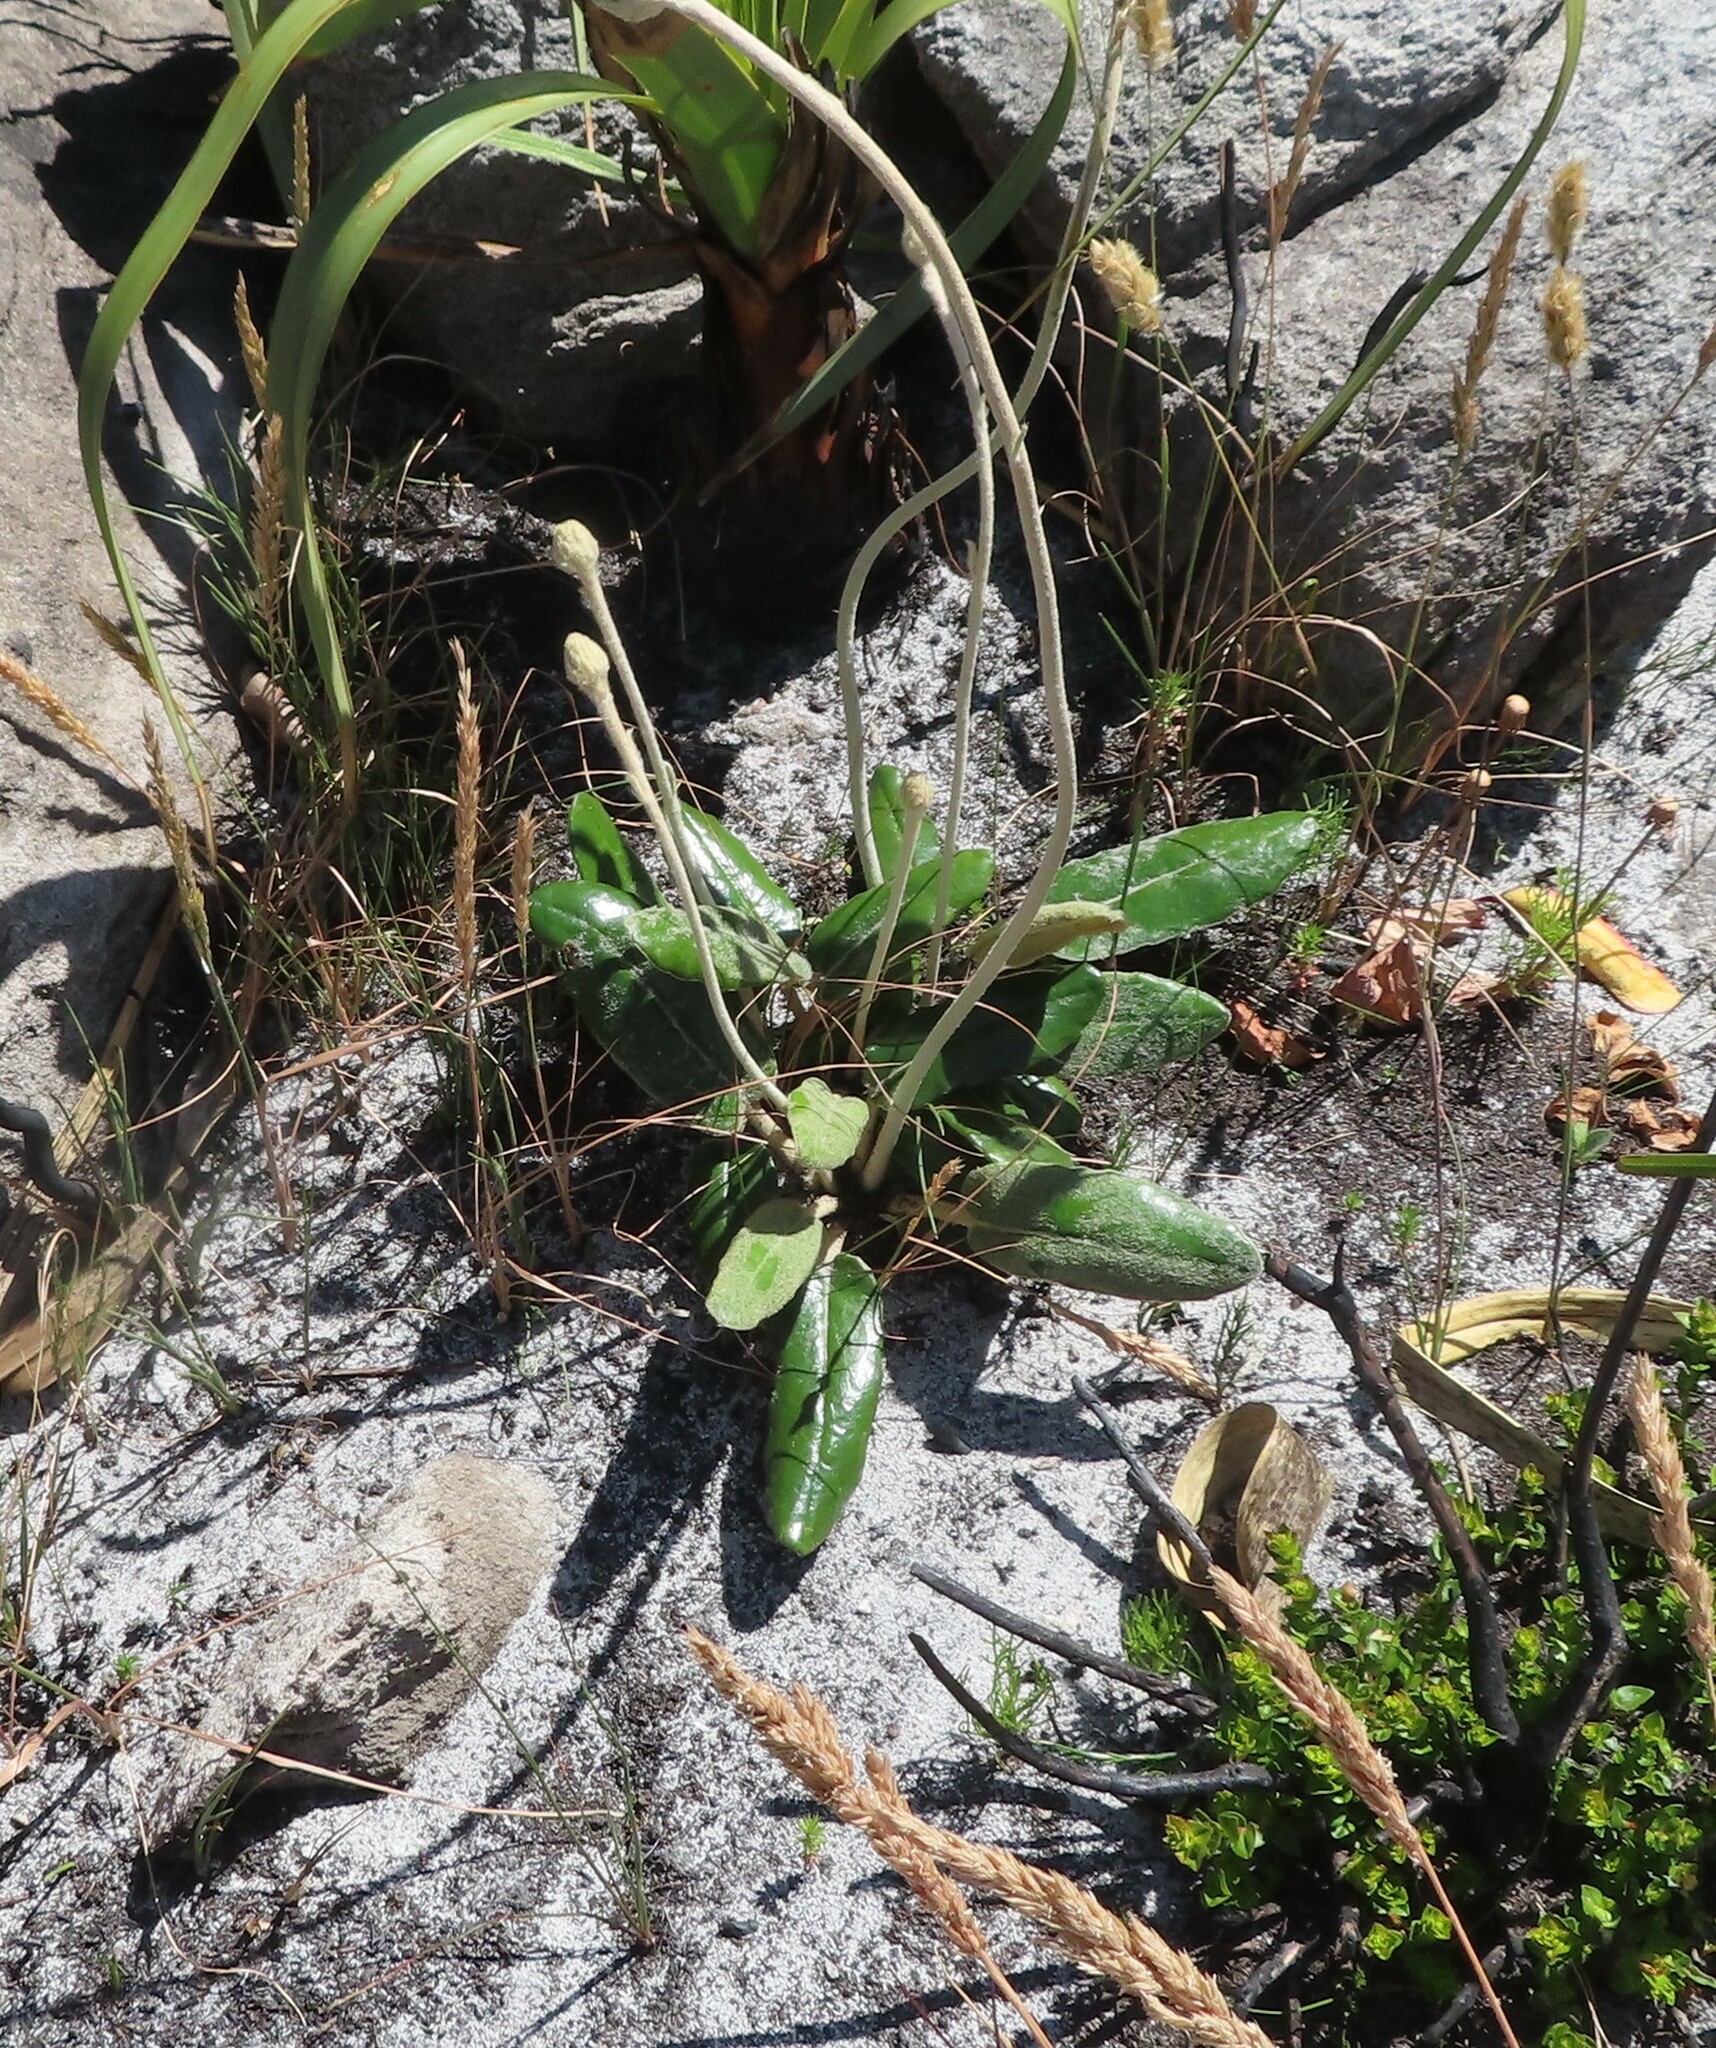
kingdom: Plantae
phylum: Tracheophyta
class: Magnoliopsida
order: Asterales
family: Asteraceae
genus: Gerbera
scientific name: Gerbera tomentosa
